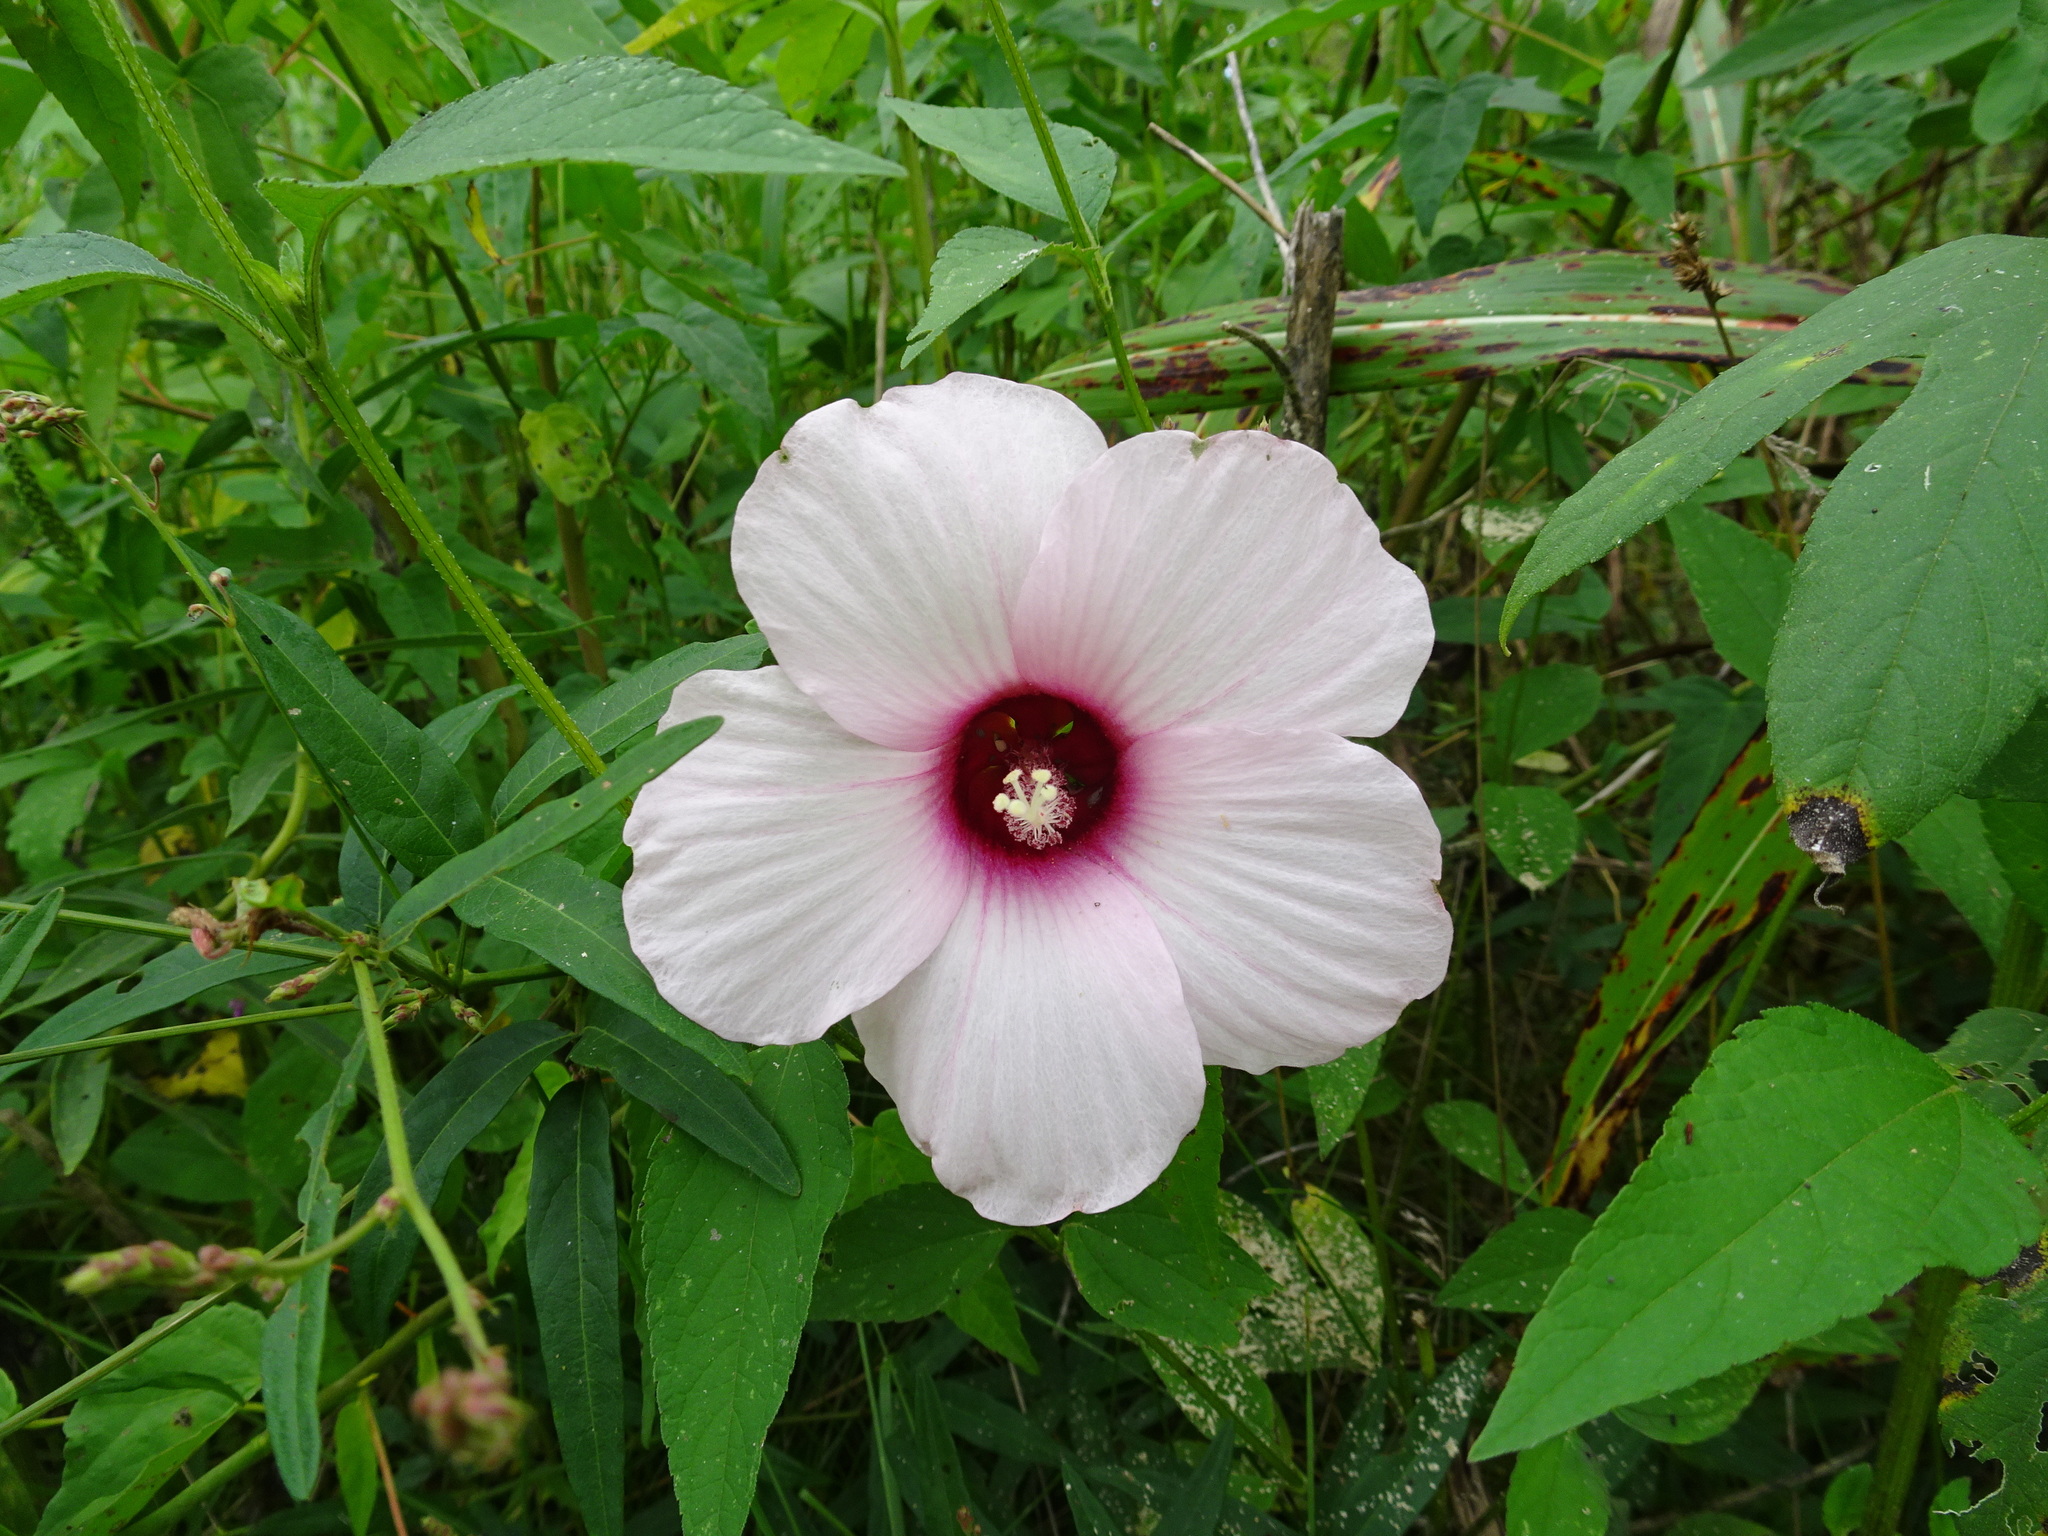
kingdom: Plantae
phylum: Tracheophyta
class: Magnoliopsida
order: Malvales
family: Malvaceae
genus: Hibiscus
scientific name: Hibiscus laevis
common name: Scarlet rose-mallow
